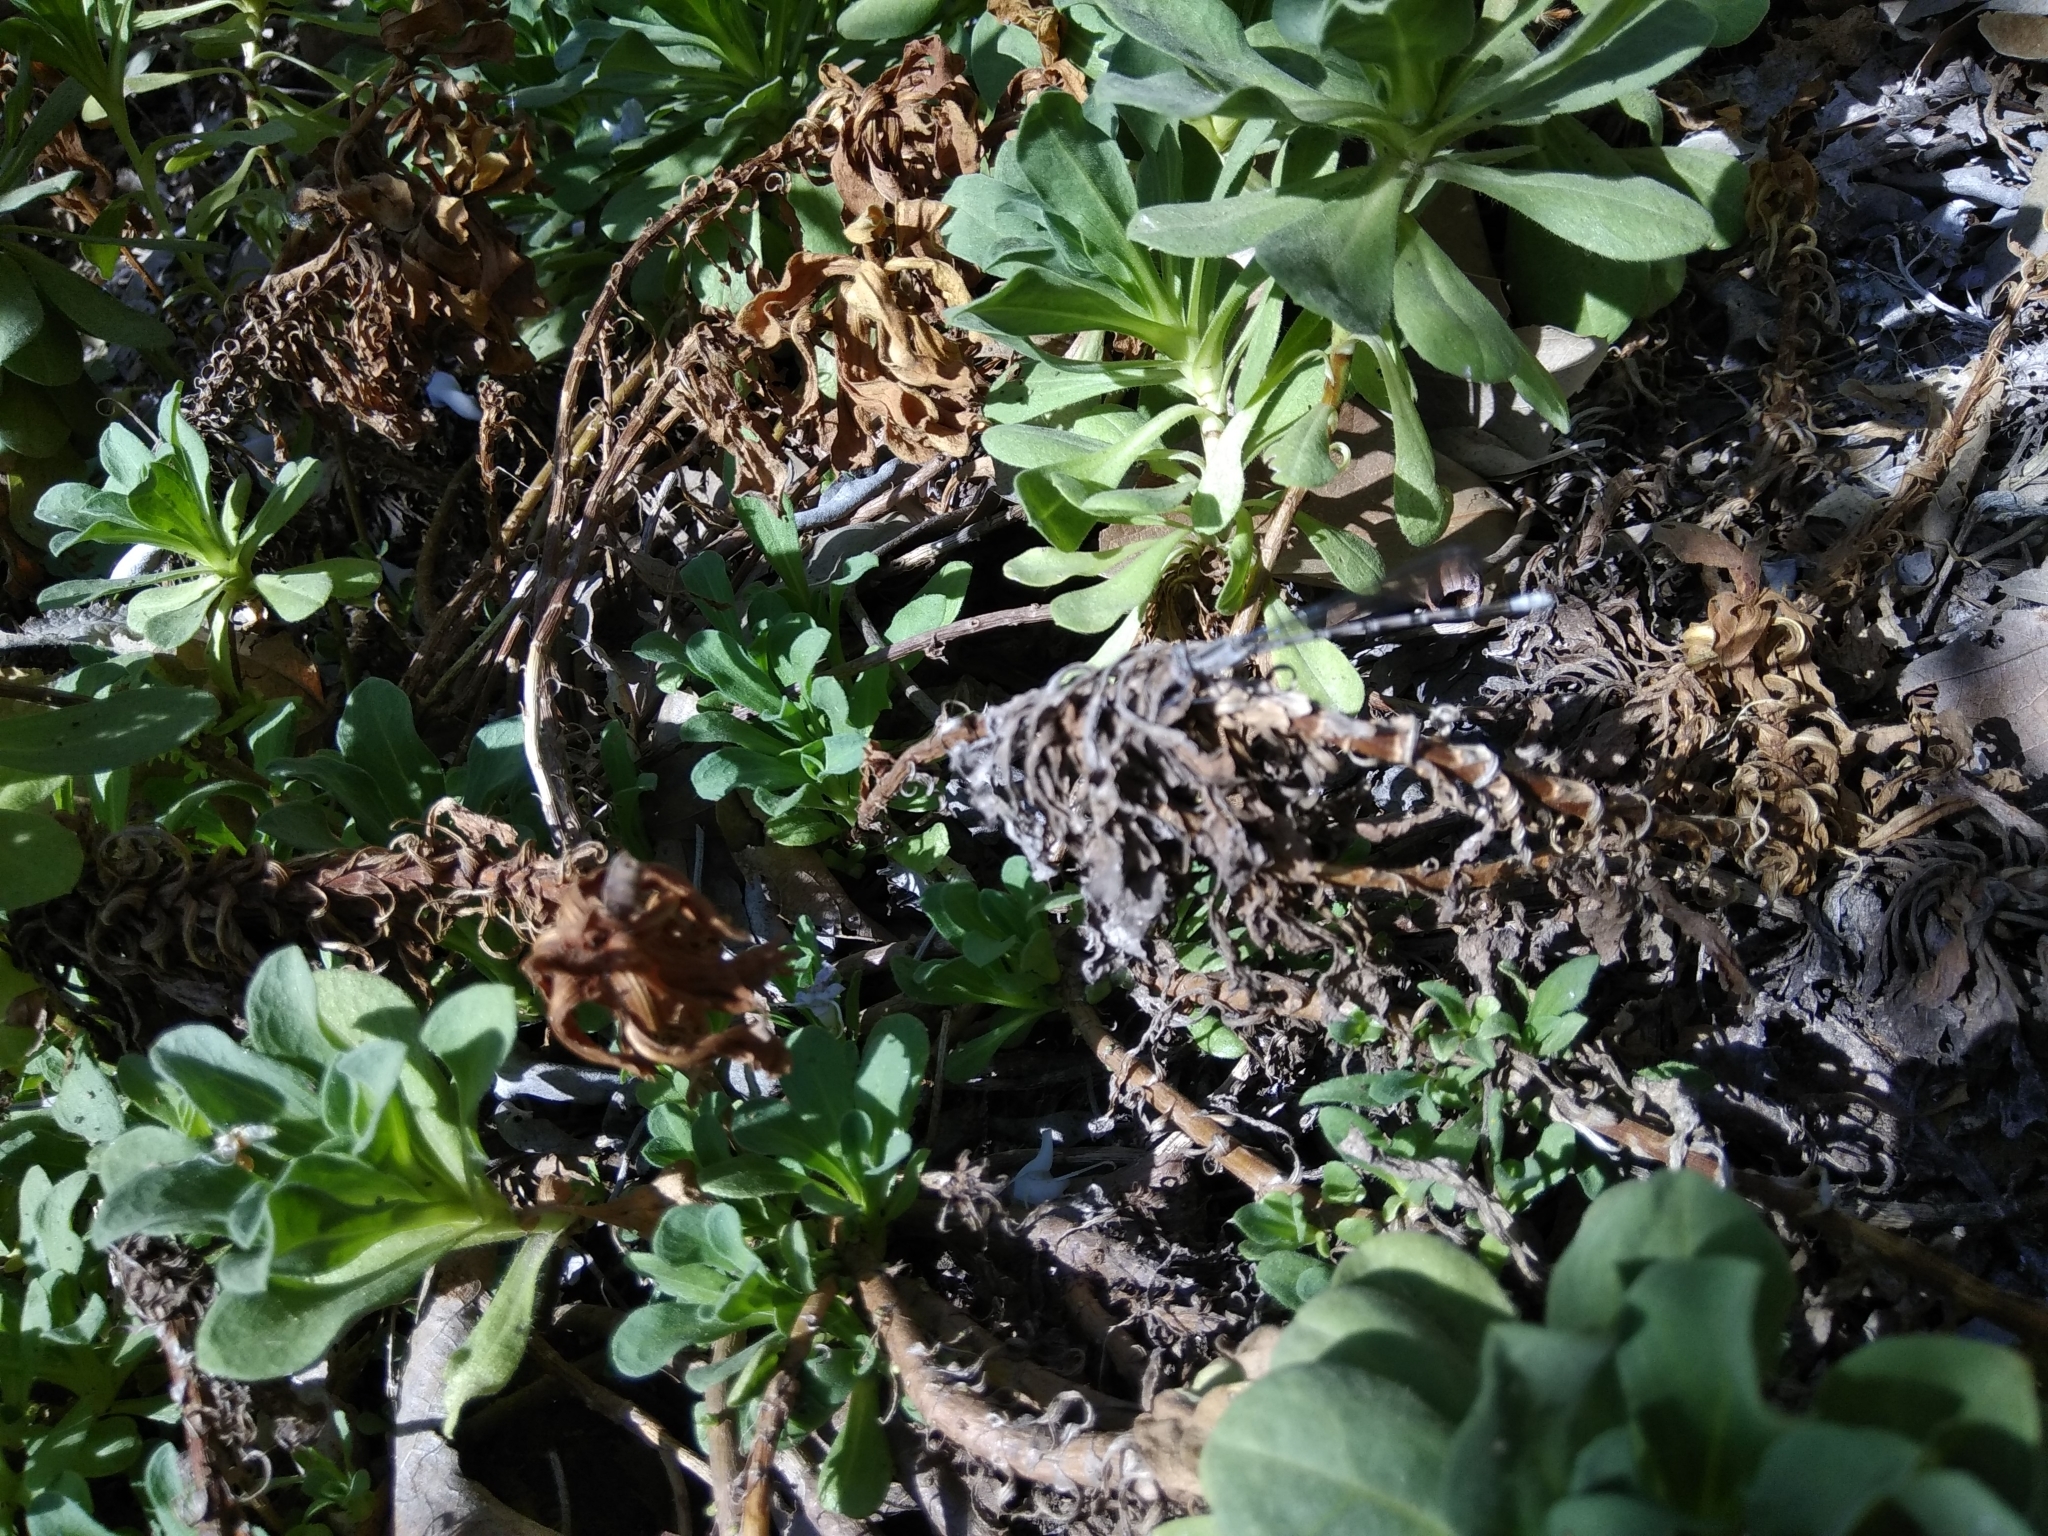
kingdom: Animalia
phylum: Arthropoda
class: Insecta
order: Odonata
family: Coenagrionidae
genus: Argia
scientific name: Argia vivida
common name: Vivid dancer
